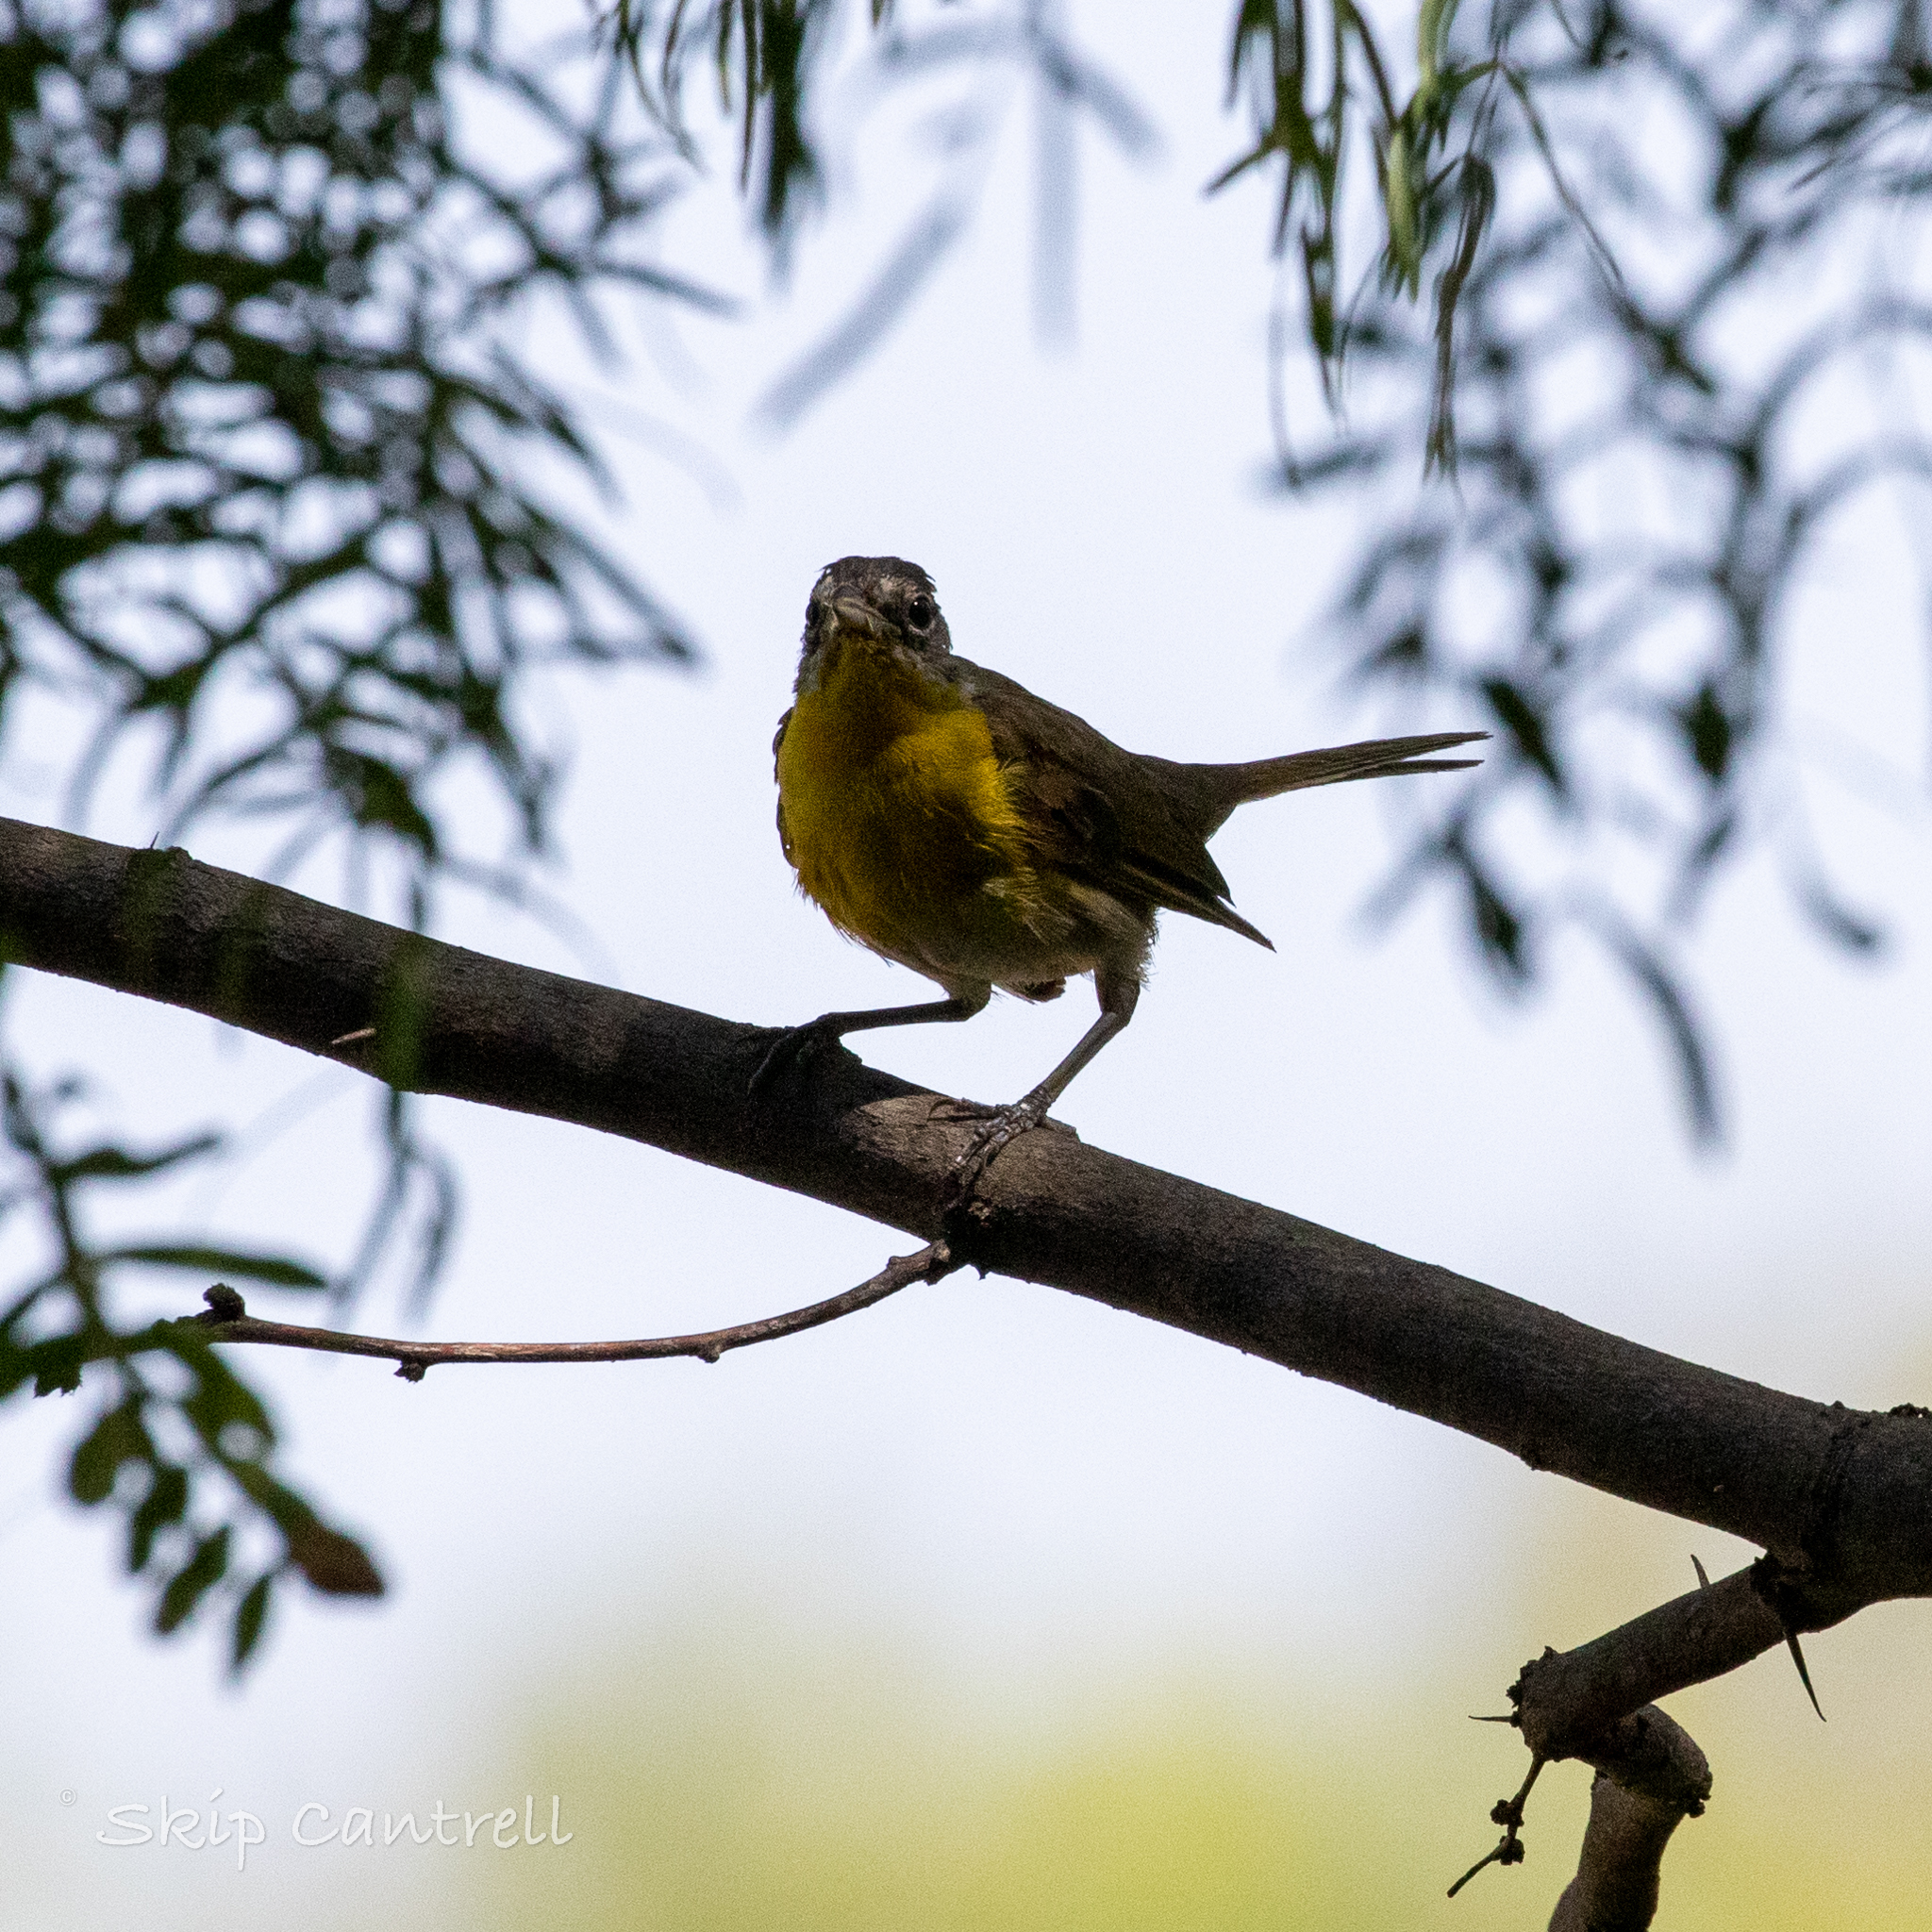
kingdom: Animalia
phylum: Chordata
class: Aves
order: Passeriformes
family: Parulidae
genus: Icteria
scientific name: Icteria virens
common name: Yellow-breasted chat
